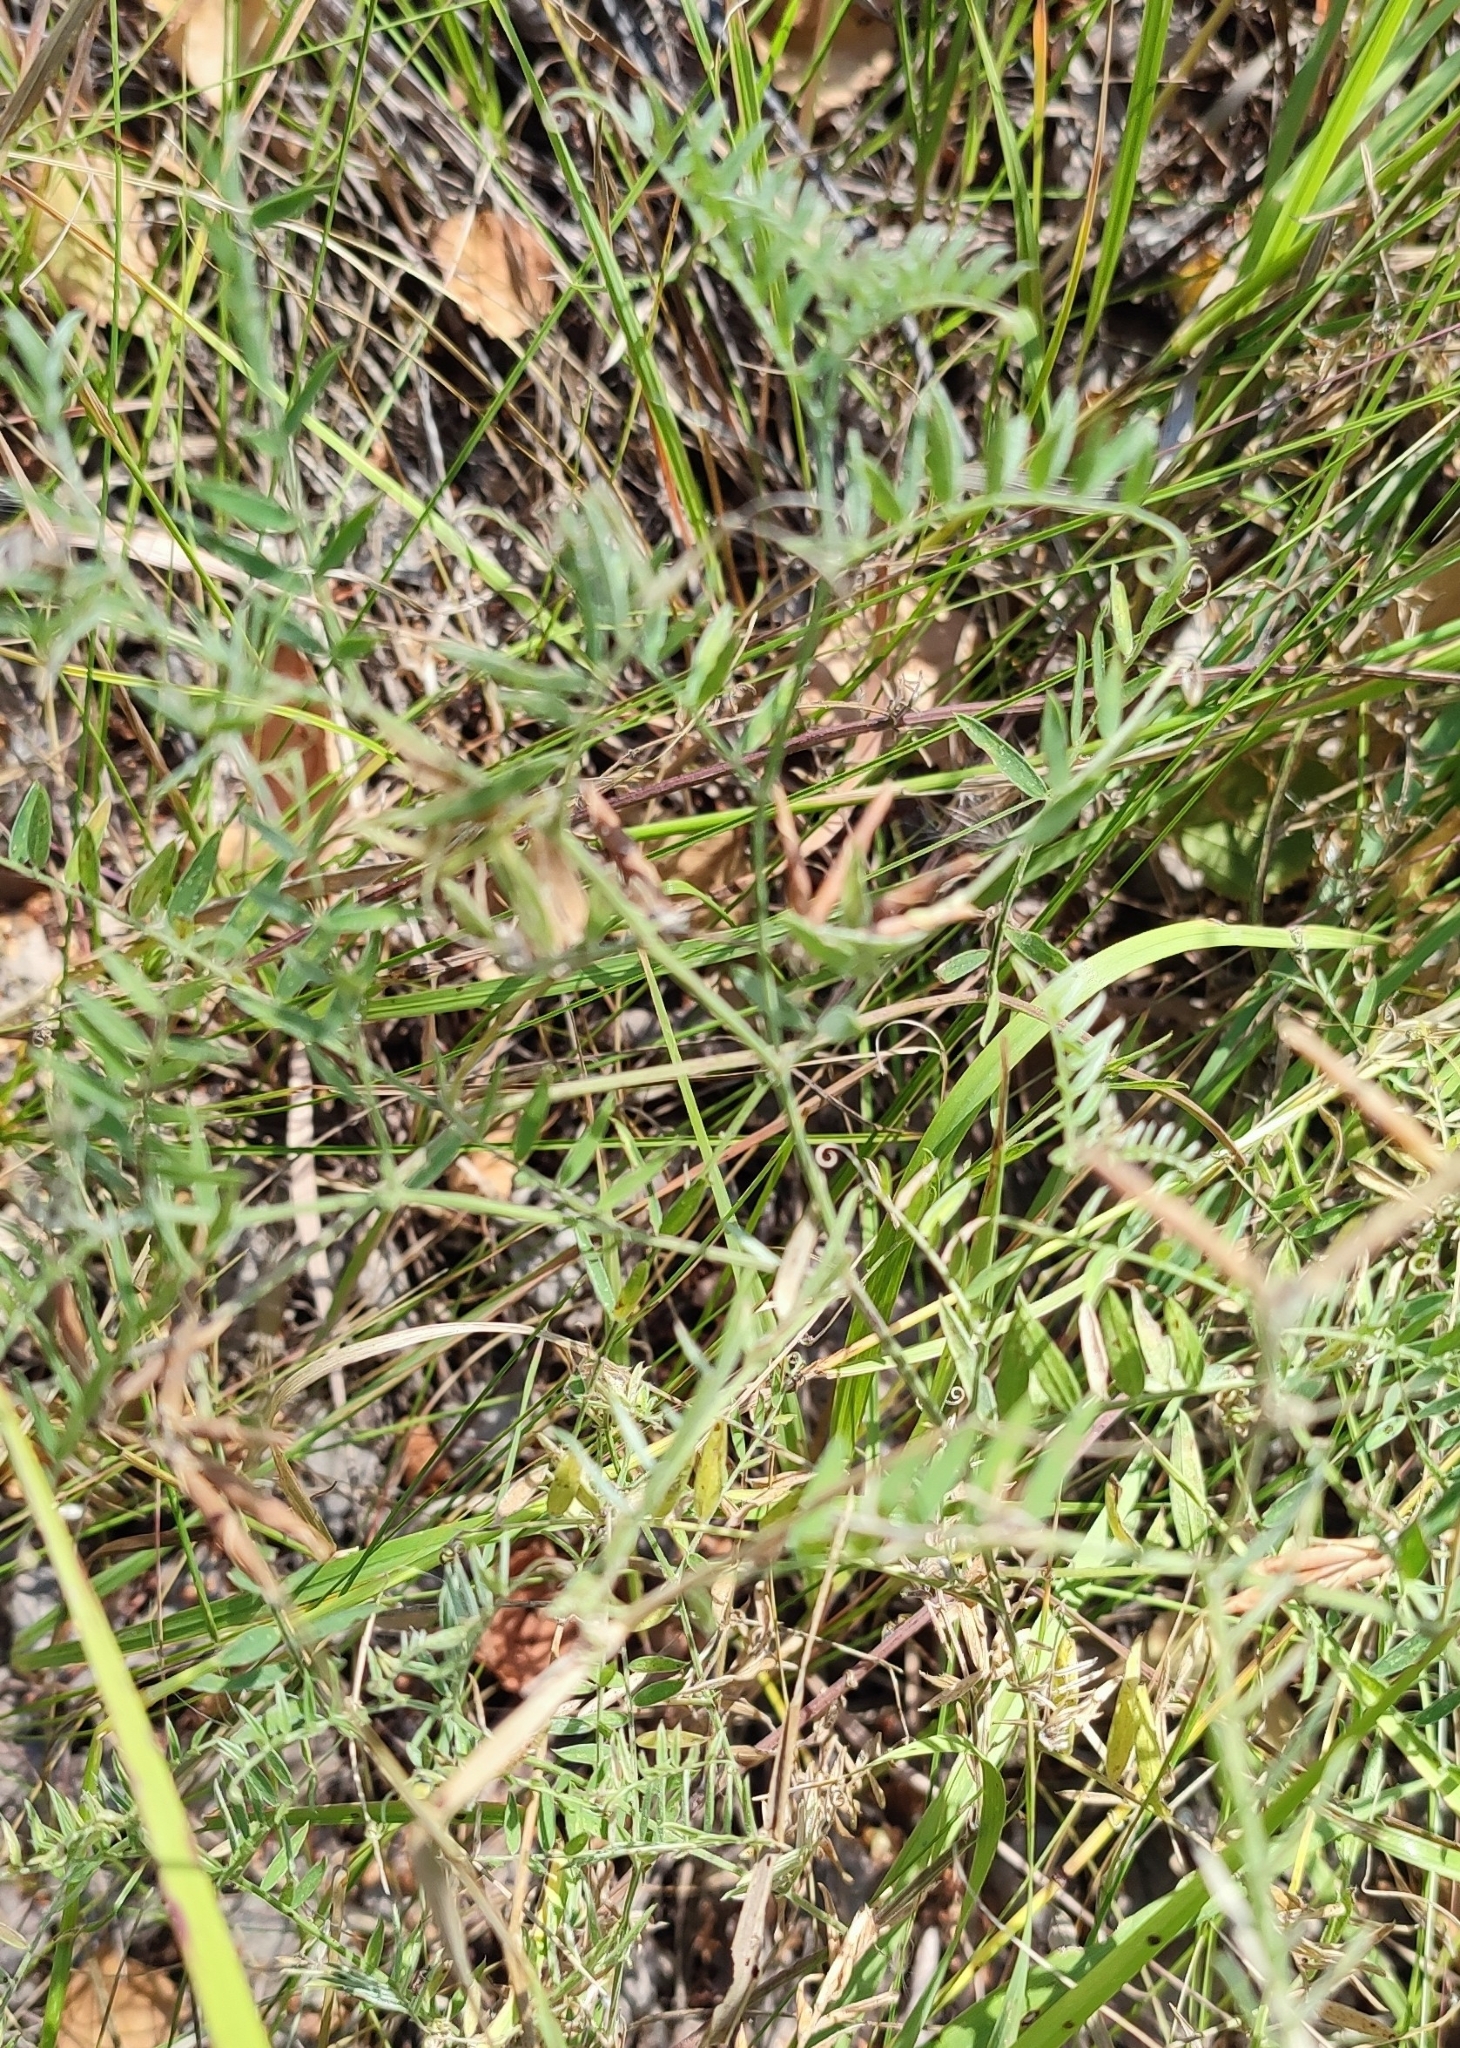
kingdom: Plantae
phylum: Tracheophyta
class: Magnoliopsida
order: Fabales
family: Fabaceae
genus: Vicia
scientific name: Vicia cracca
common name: Bird vetch
